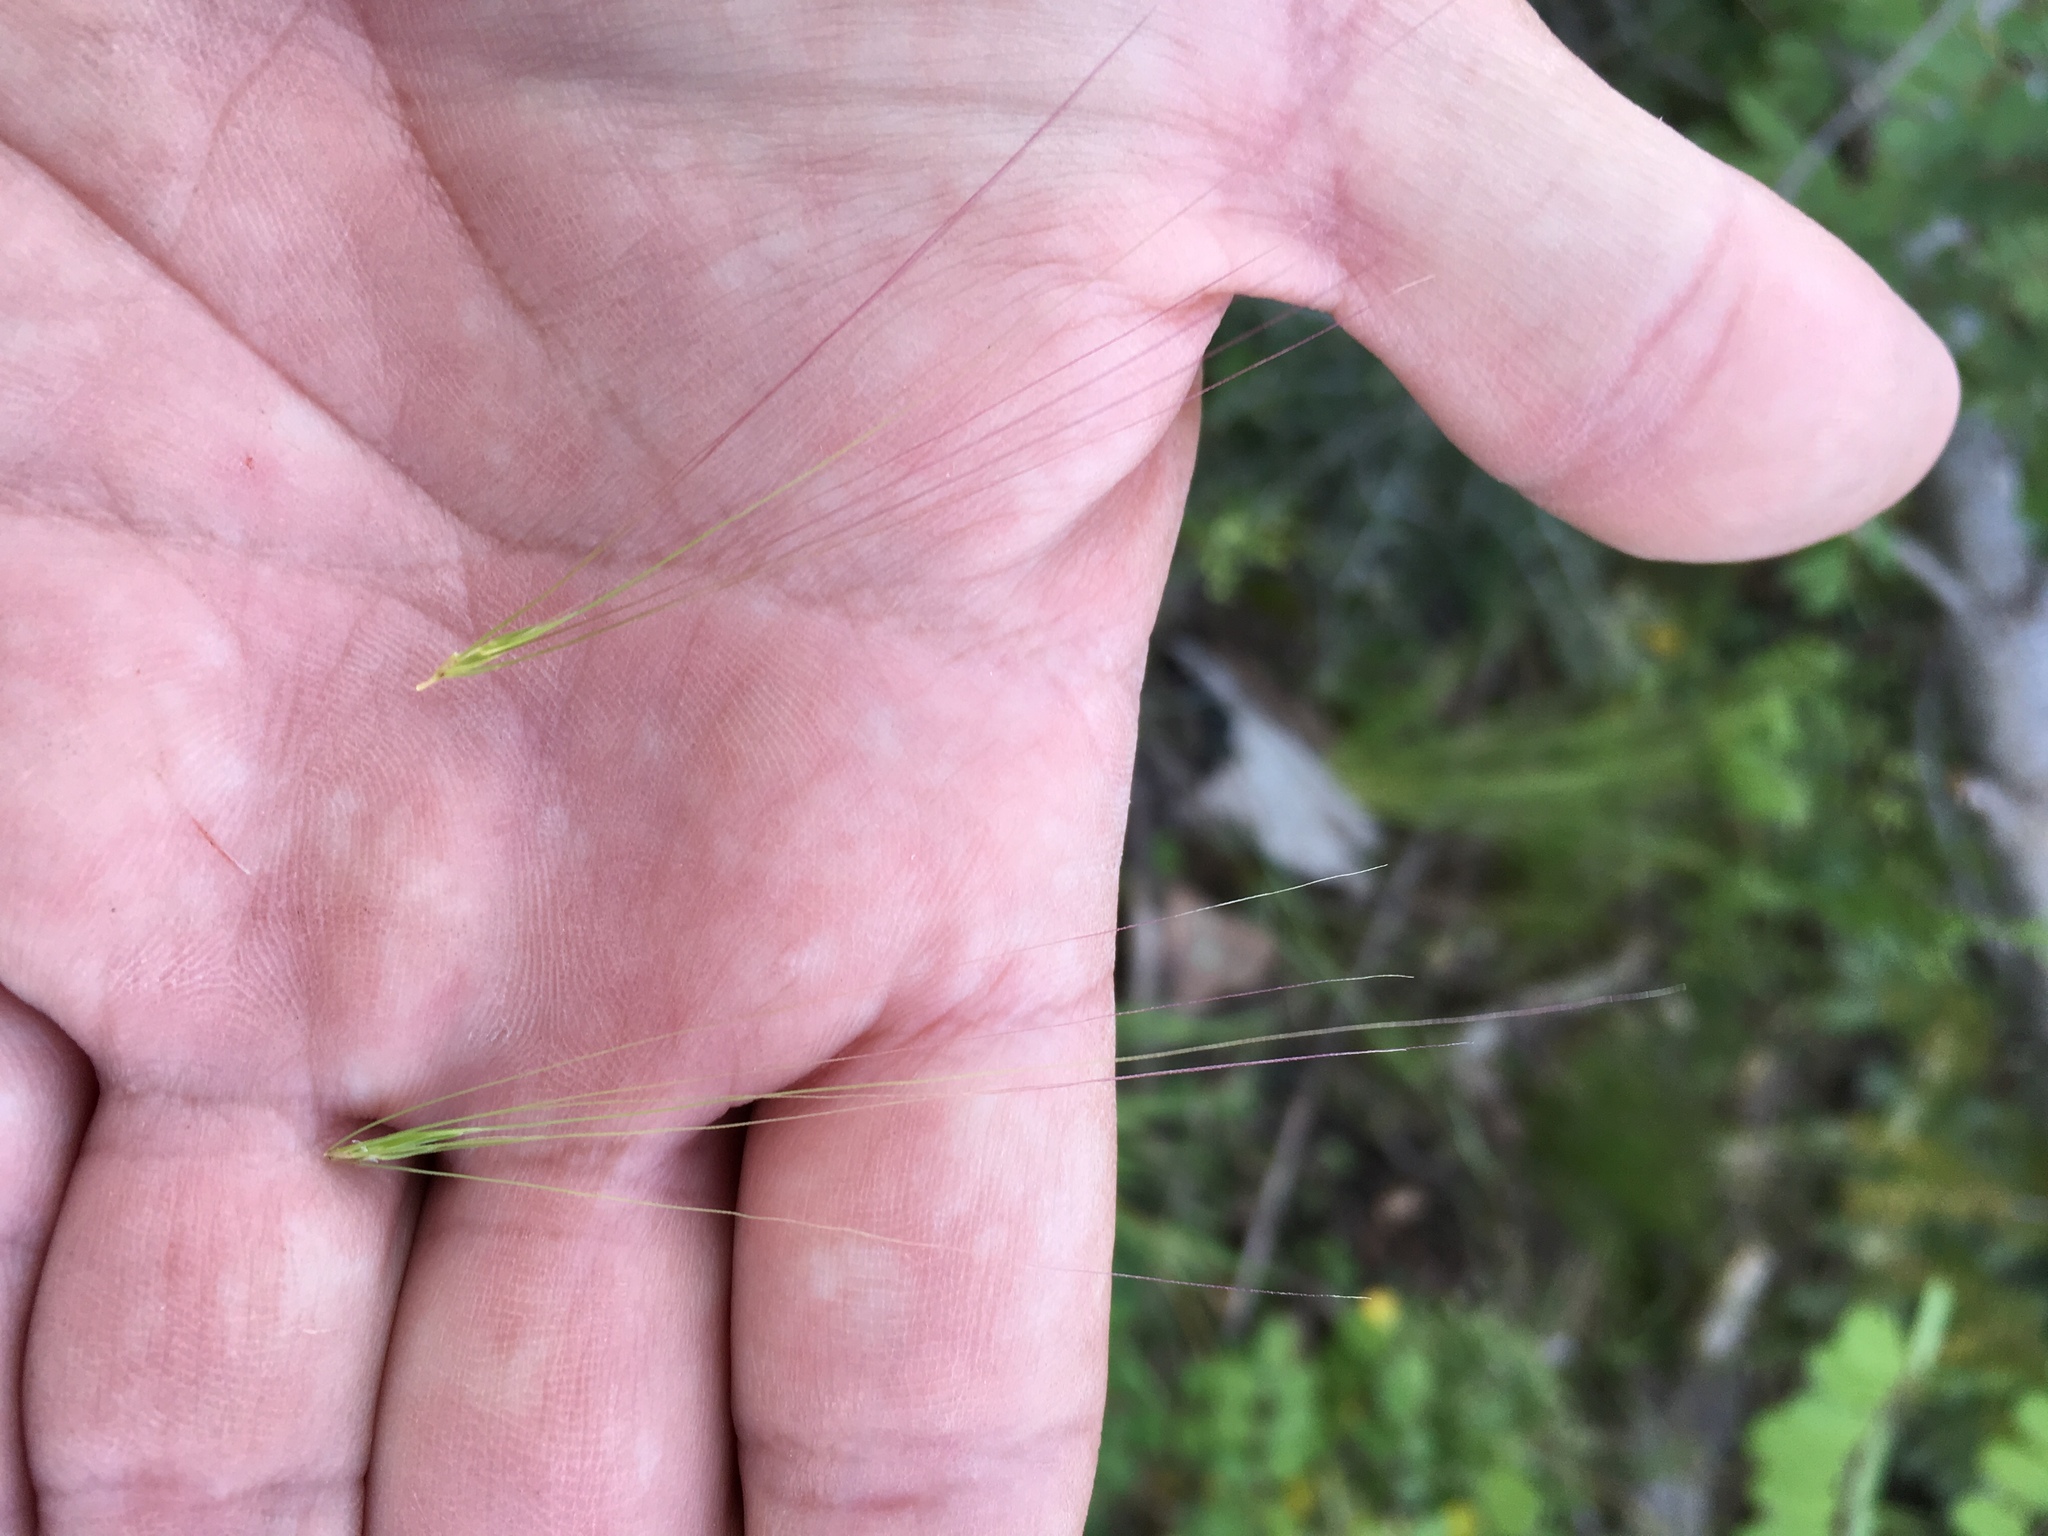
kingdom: Plantae
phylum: Tracheophyta
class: Liliopsida
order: Poales
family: Poaceae
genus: Hordeum
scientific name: Hordeum jubatum
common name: Foxtail barley
